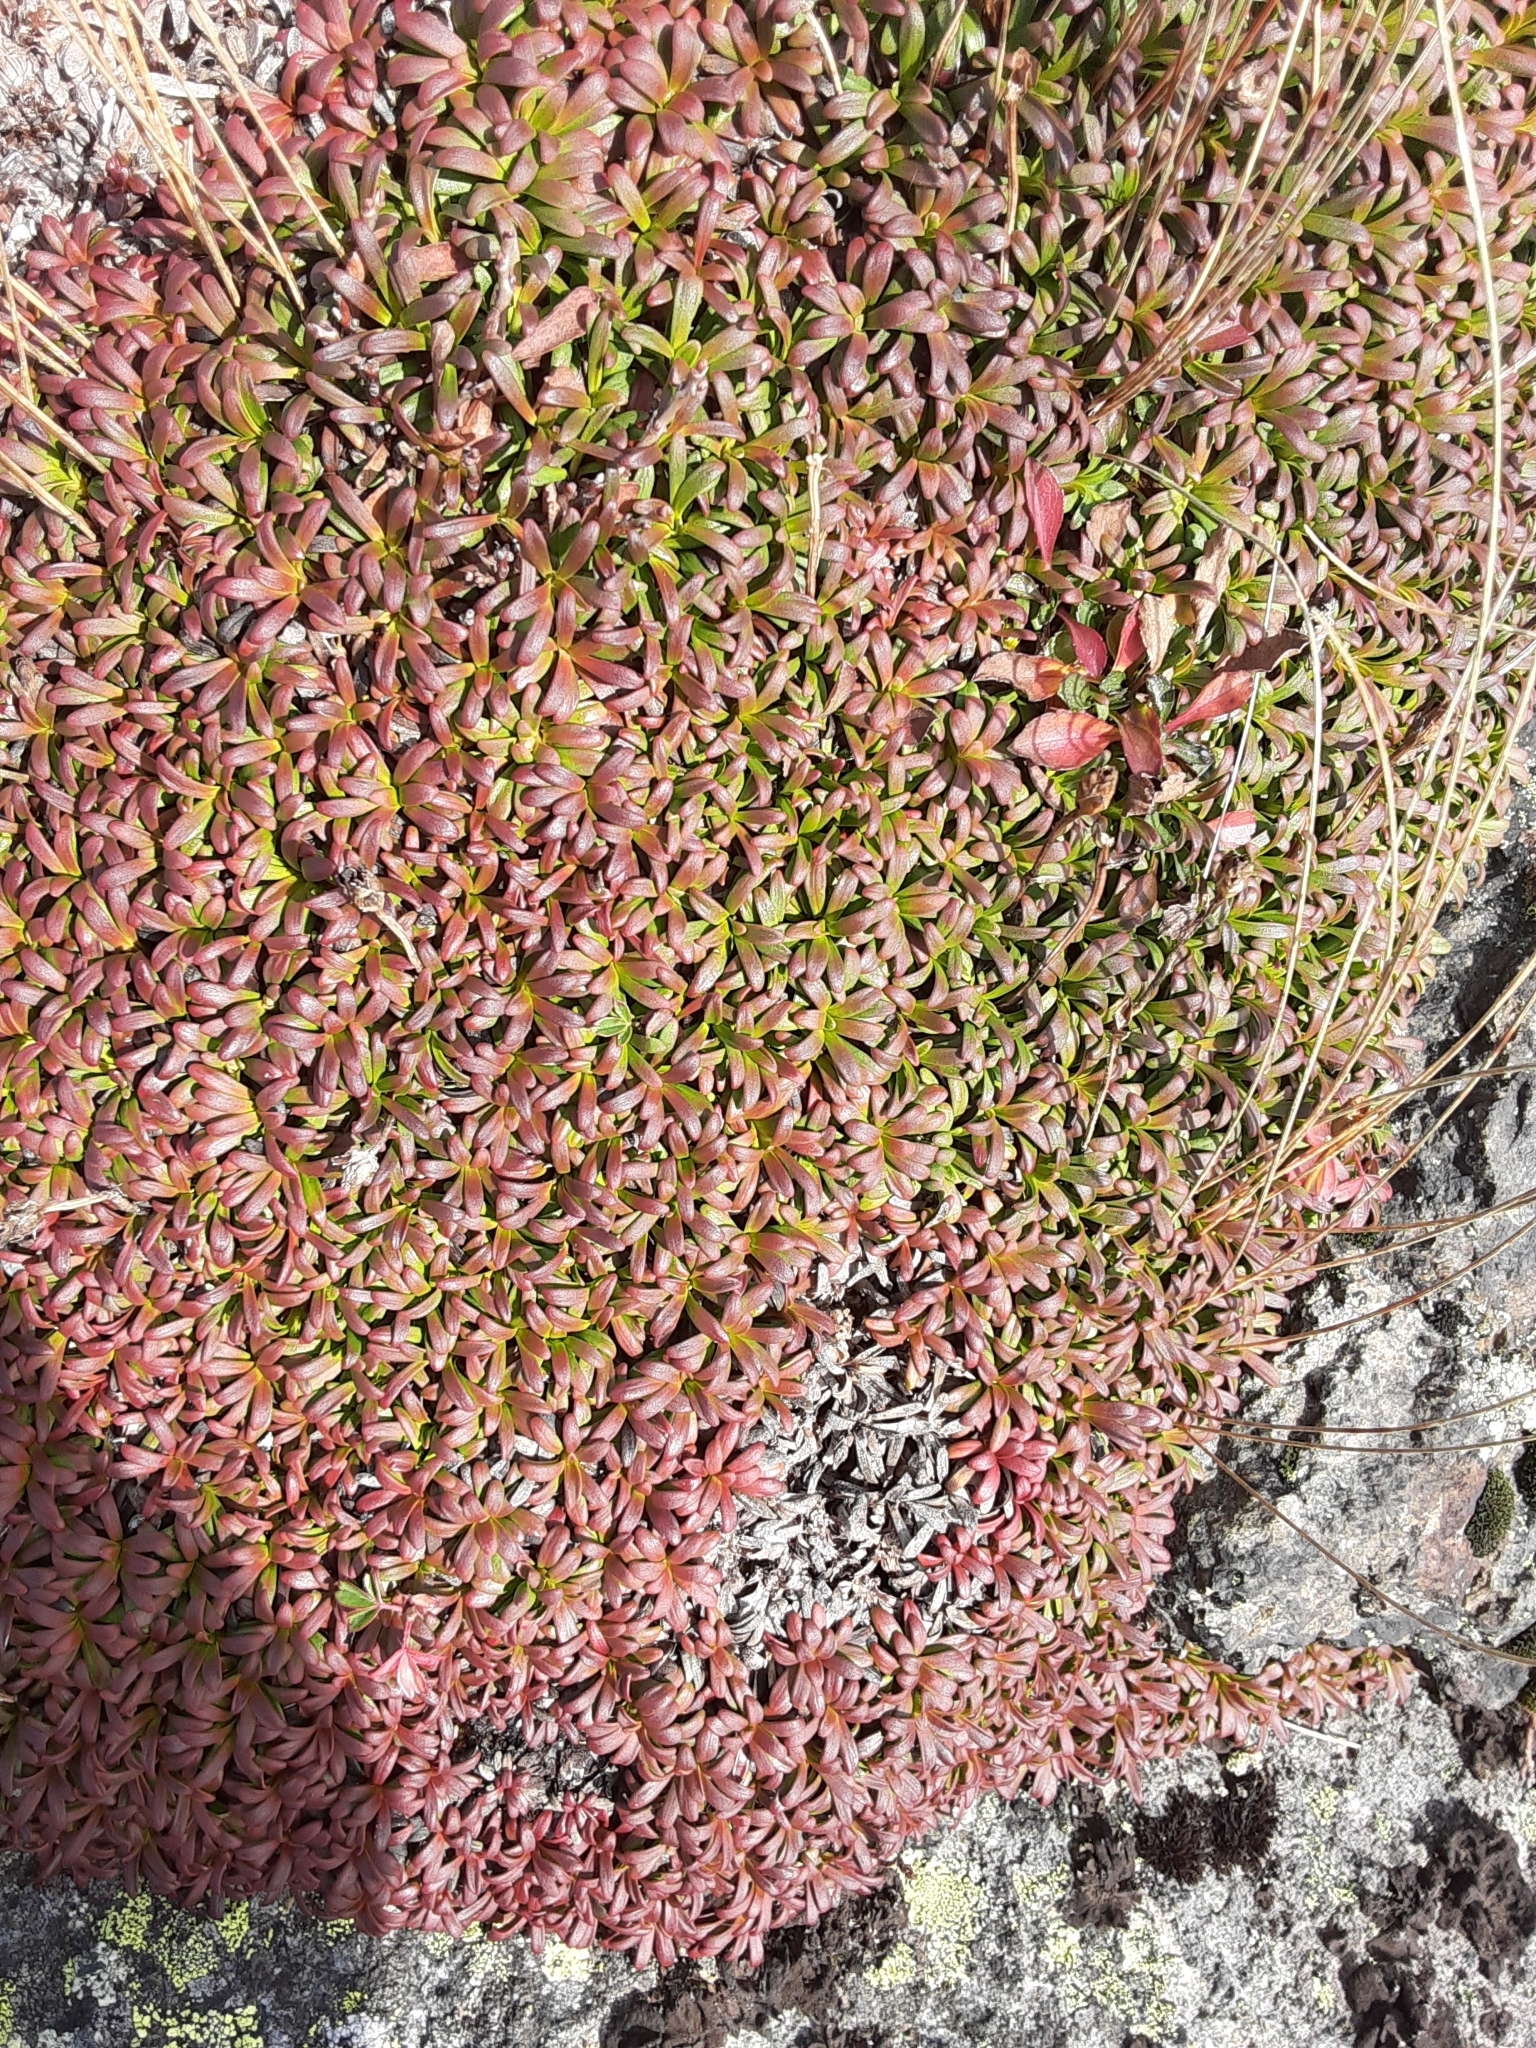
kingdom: Plantae
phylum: Tracheophyta
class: Magnoliopsida
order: Ericales
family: Diapensiaceae
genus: Diapensia
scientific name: Diapensia lapponica
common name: Diapensia
